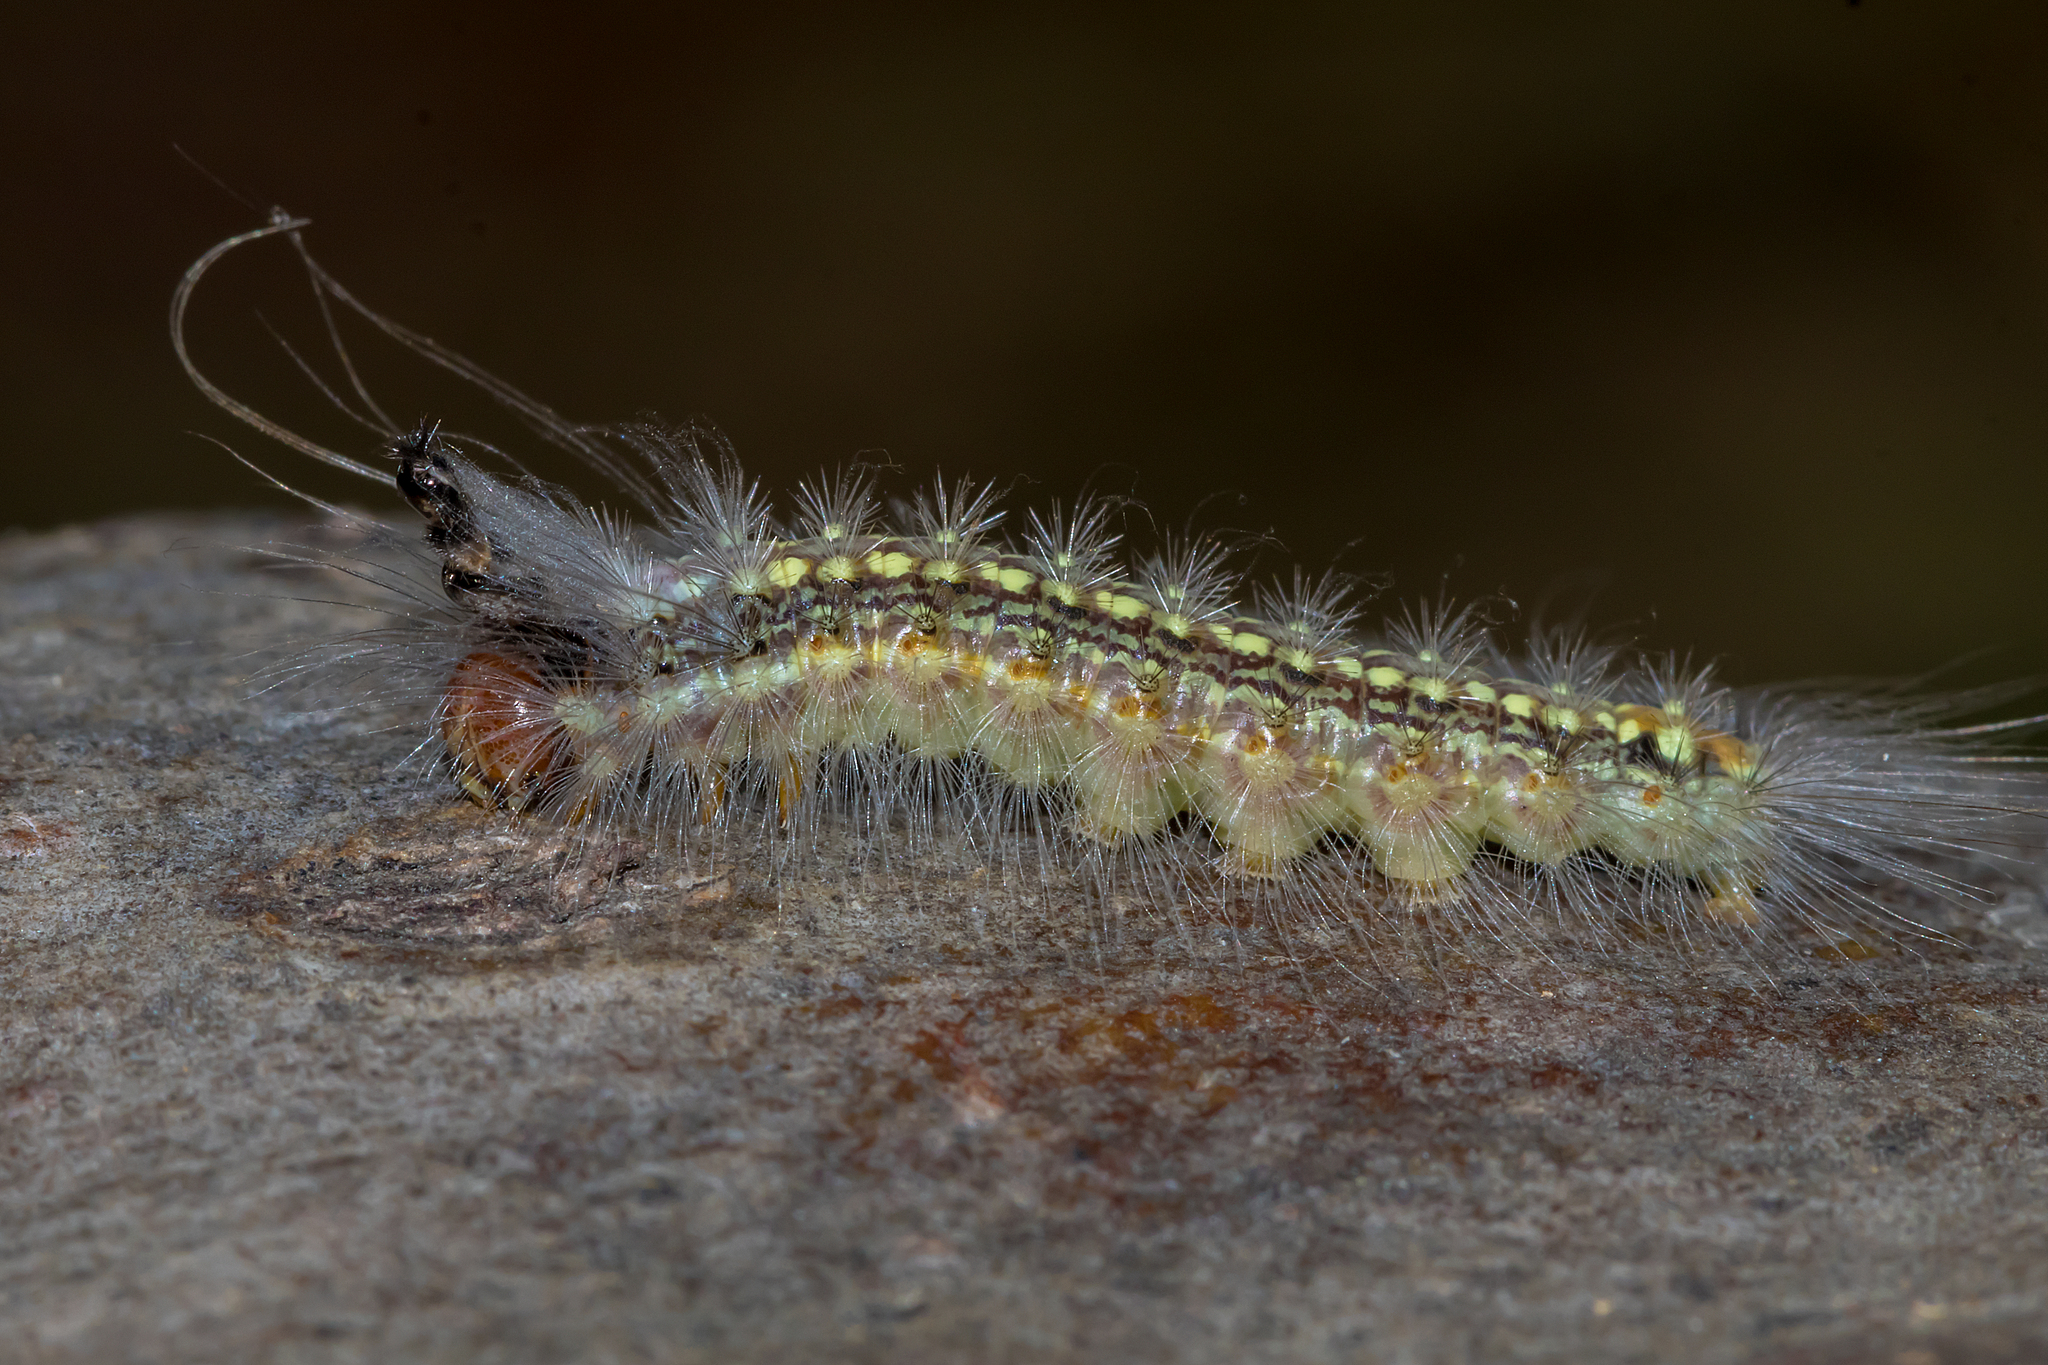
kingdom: Animalia
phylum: Arthropoda
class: Insecta
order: Lepidoptera
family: Nolidae
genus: Uraba
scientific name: Uraba lugens
